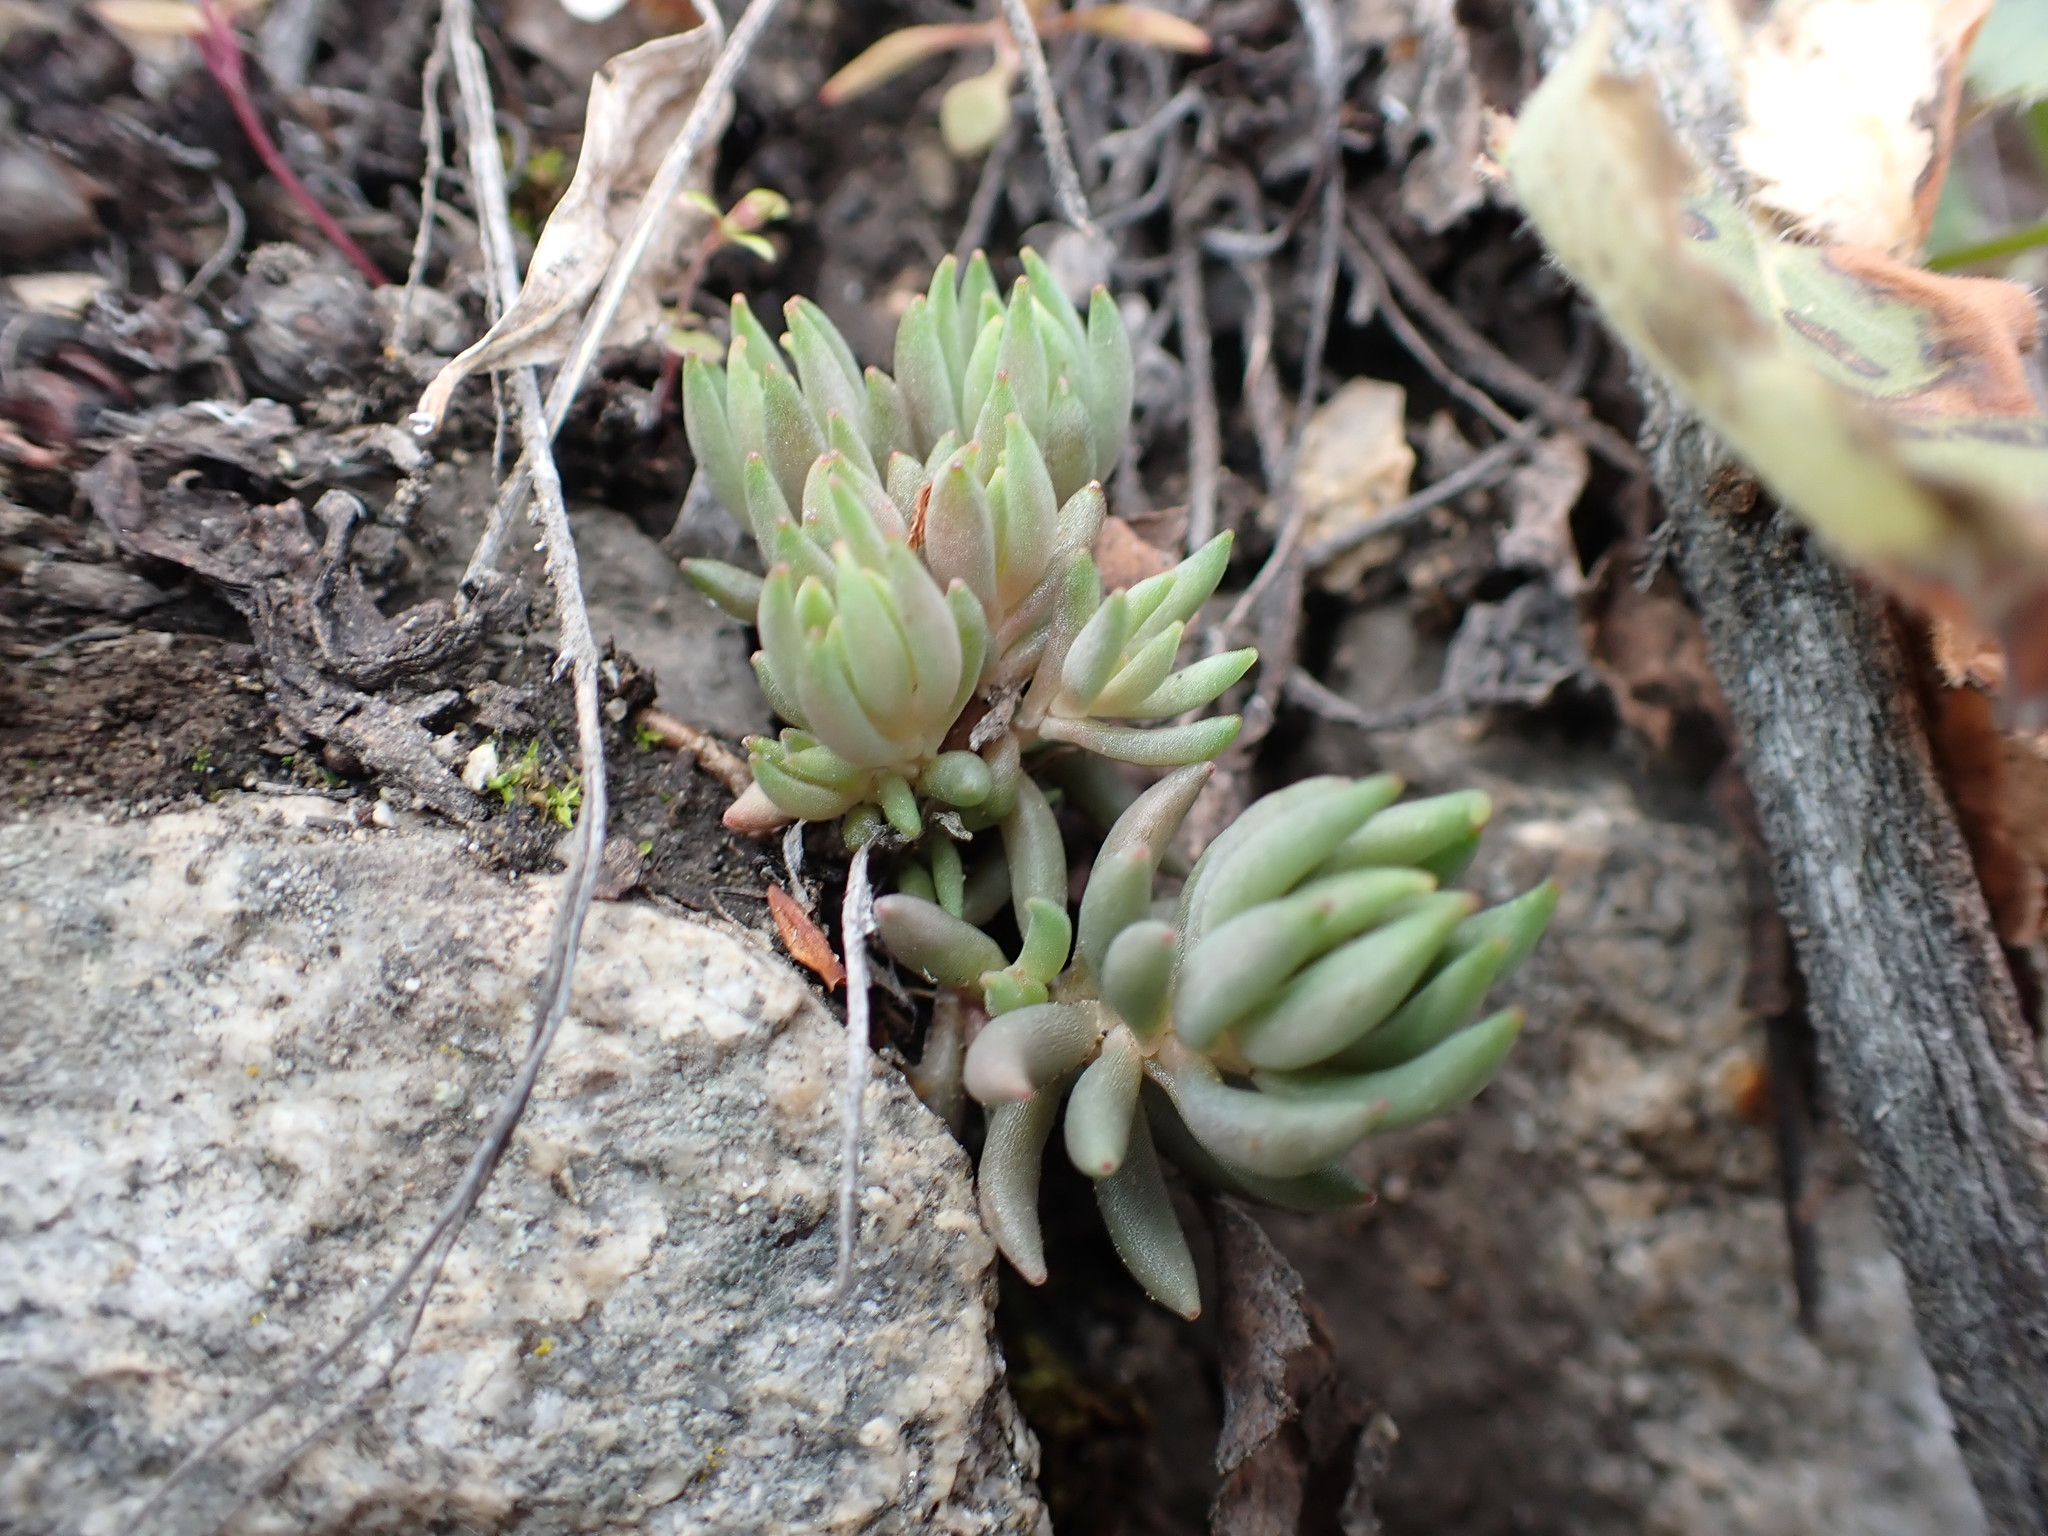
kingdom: Plantae
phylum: Tracheophyta
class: Magnoliopsida
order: Saxifragales
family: Crassulaceae
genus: Sedum
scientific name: Sedum lanceolatum
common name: Common stonecrop
